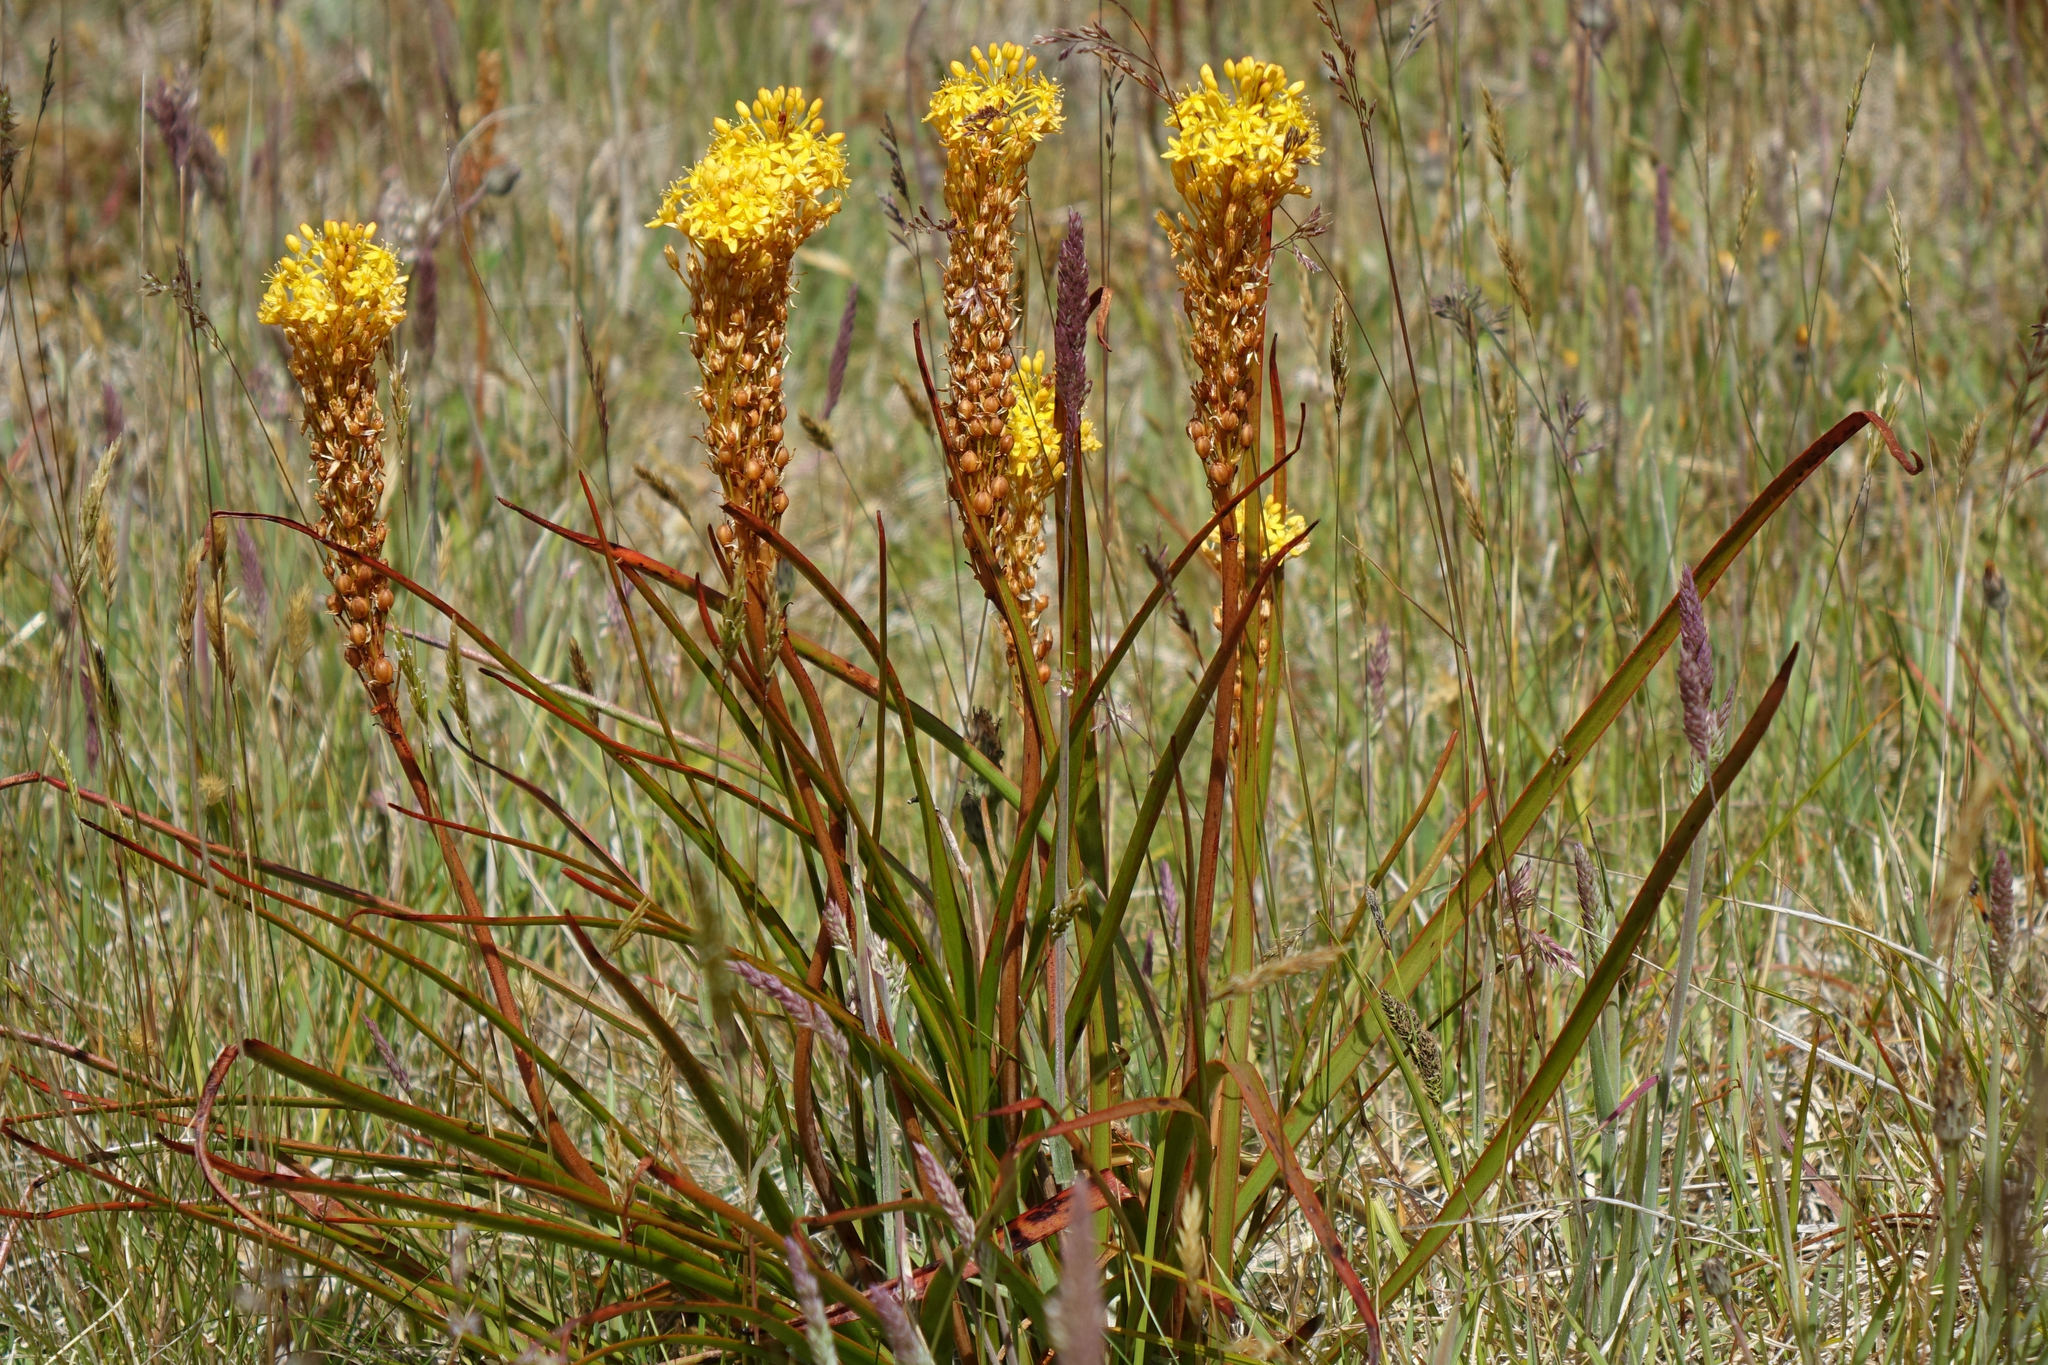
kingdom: Plantae
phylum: Tracheophyta
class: Liliopsida
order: Asparagales
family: Asphodelaceae
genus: Bulbinella
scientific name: Bulbinella angustifolia
